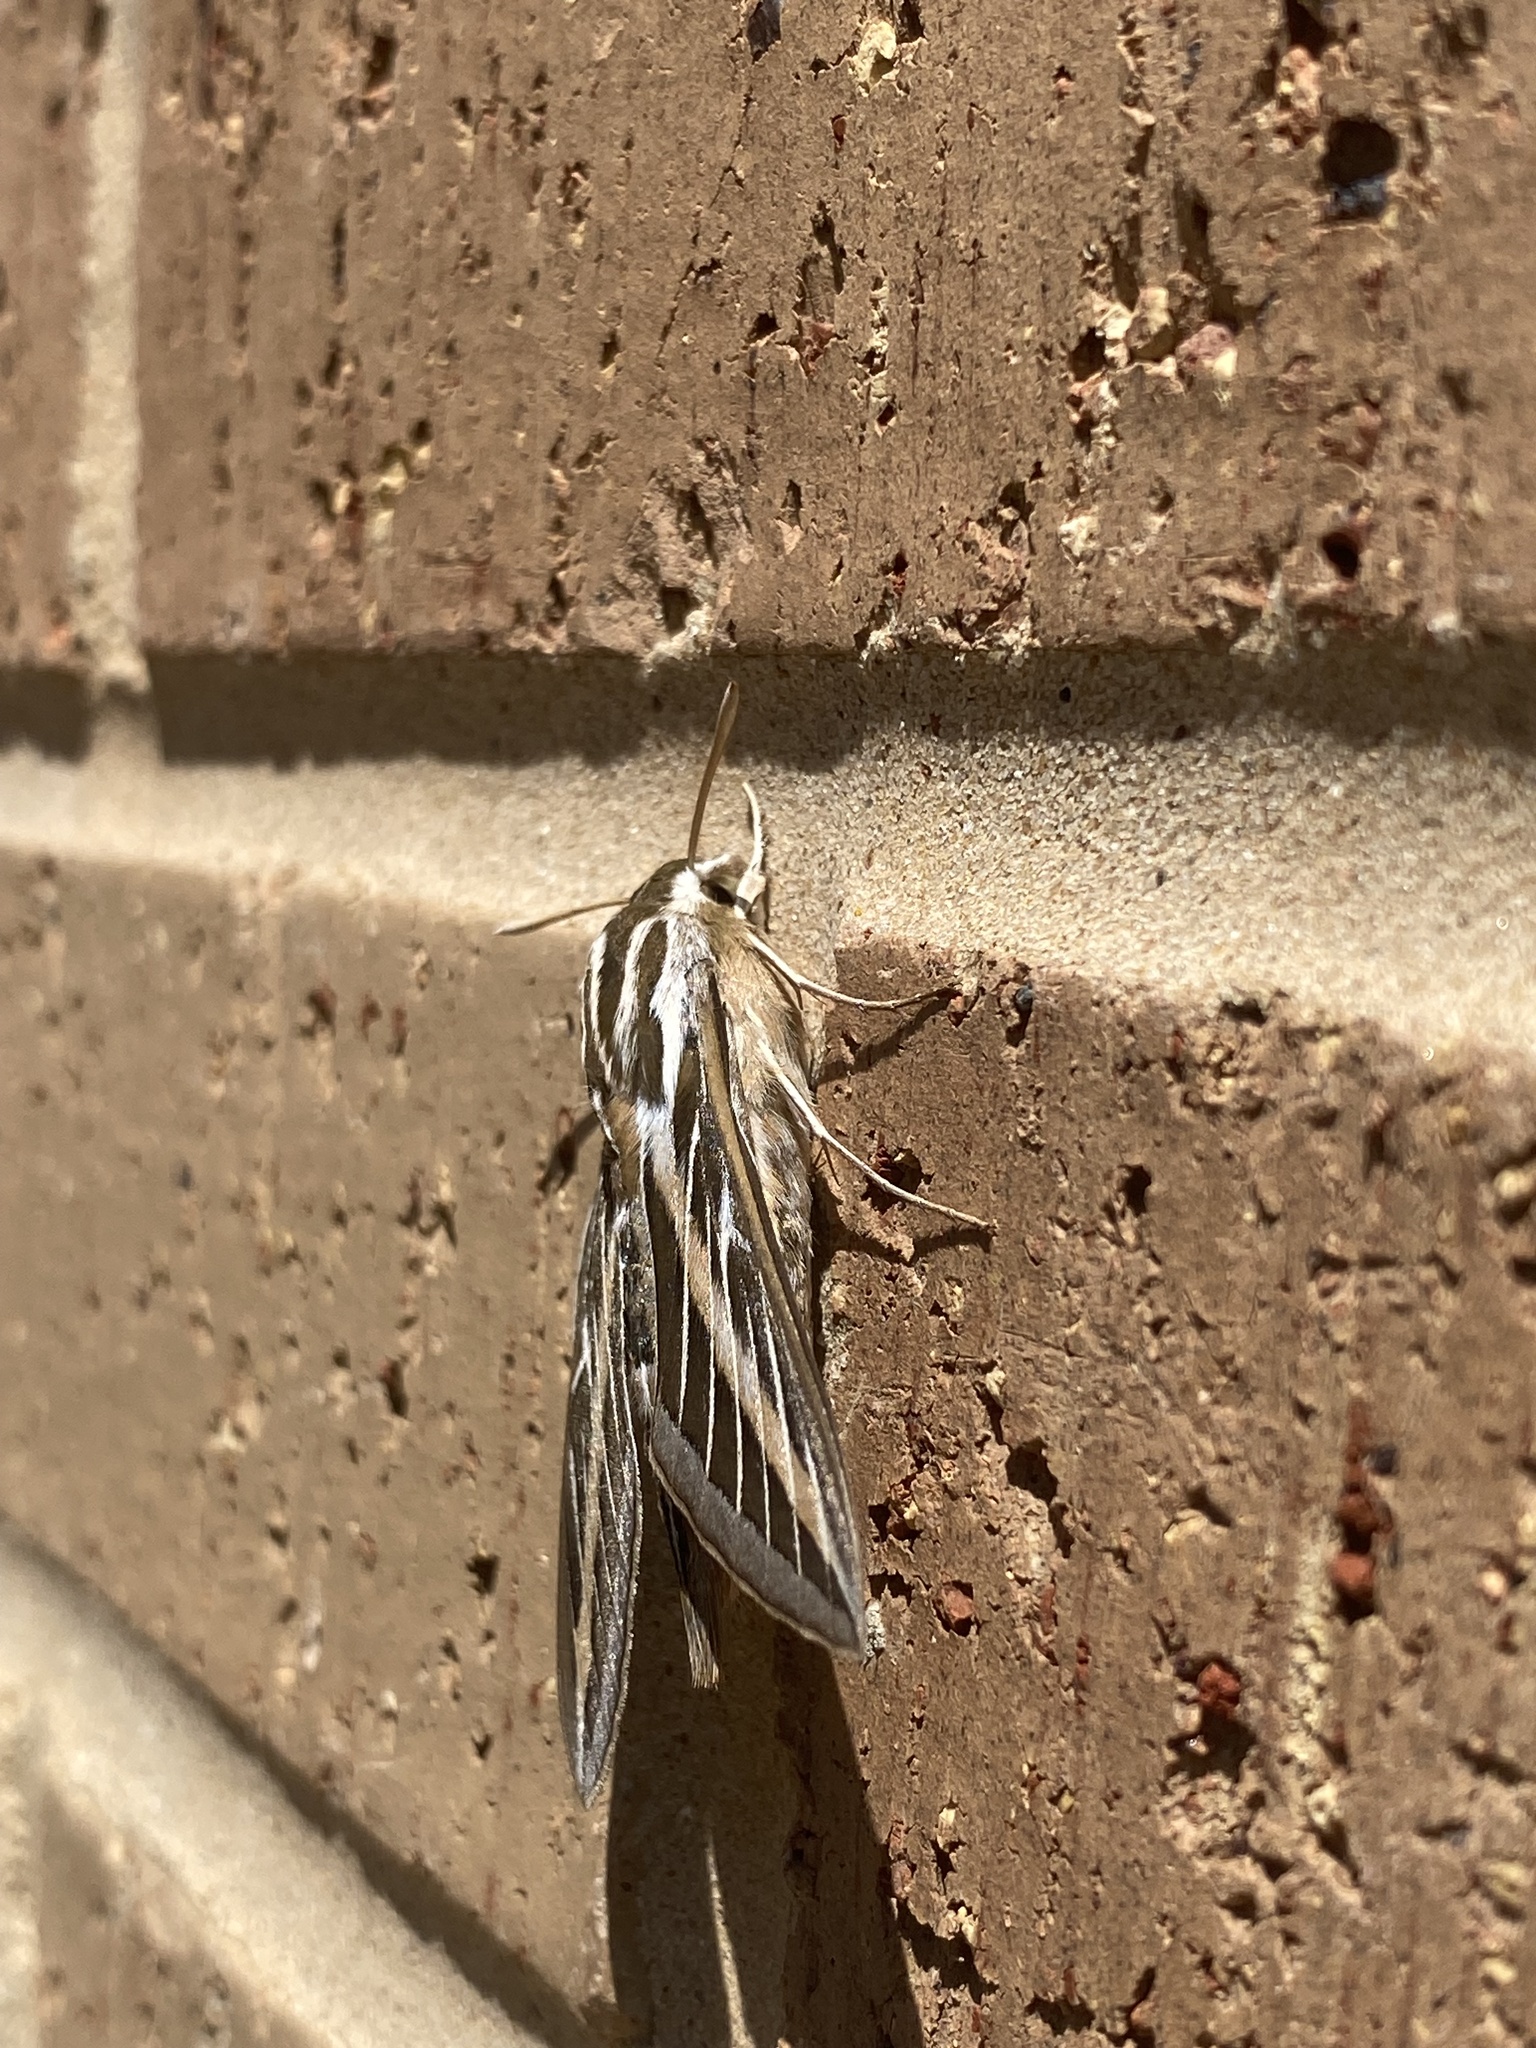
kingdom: Animalia
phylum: Arthropoda
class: Insecta
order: Lepidoptera
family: Sphingidae
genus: Hyles
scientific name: Hyles lineata
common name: White-lined sphinx
